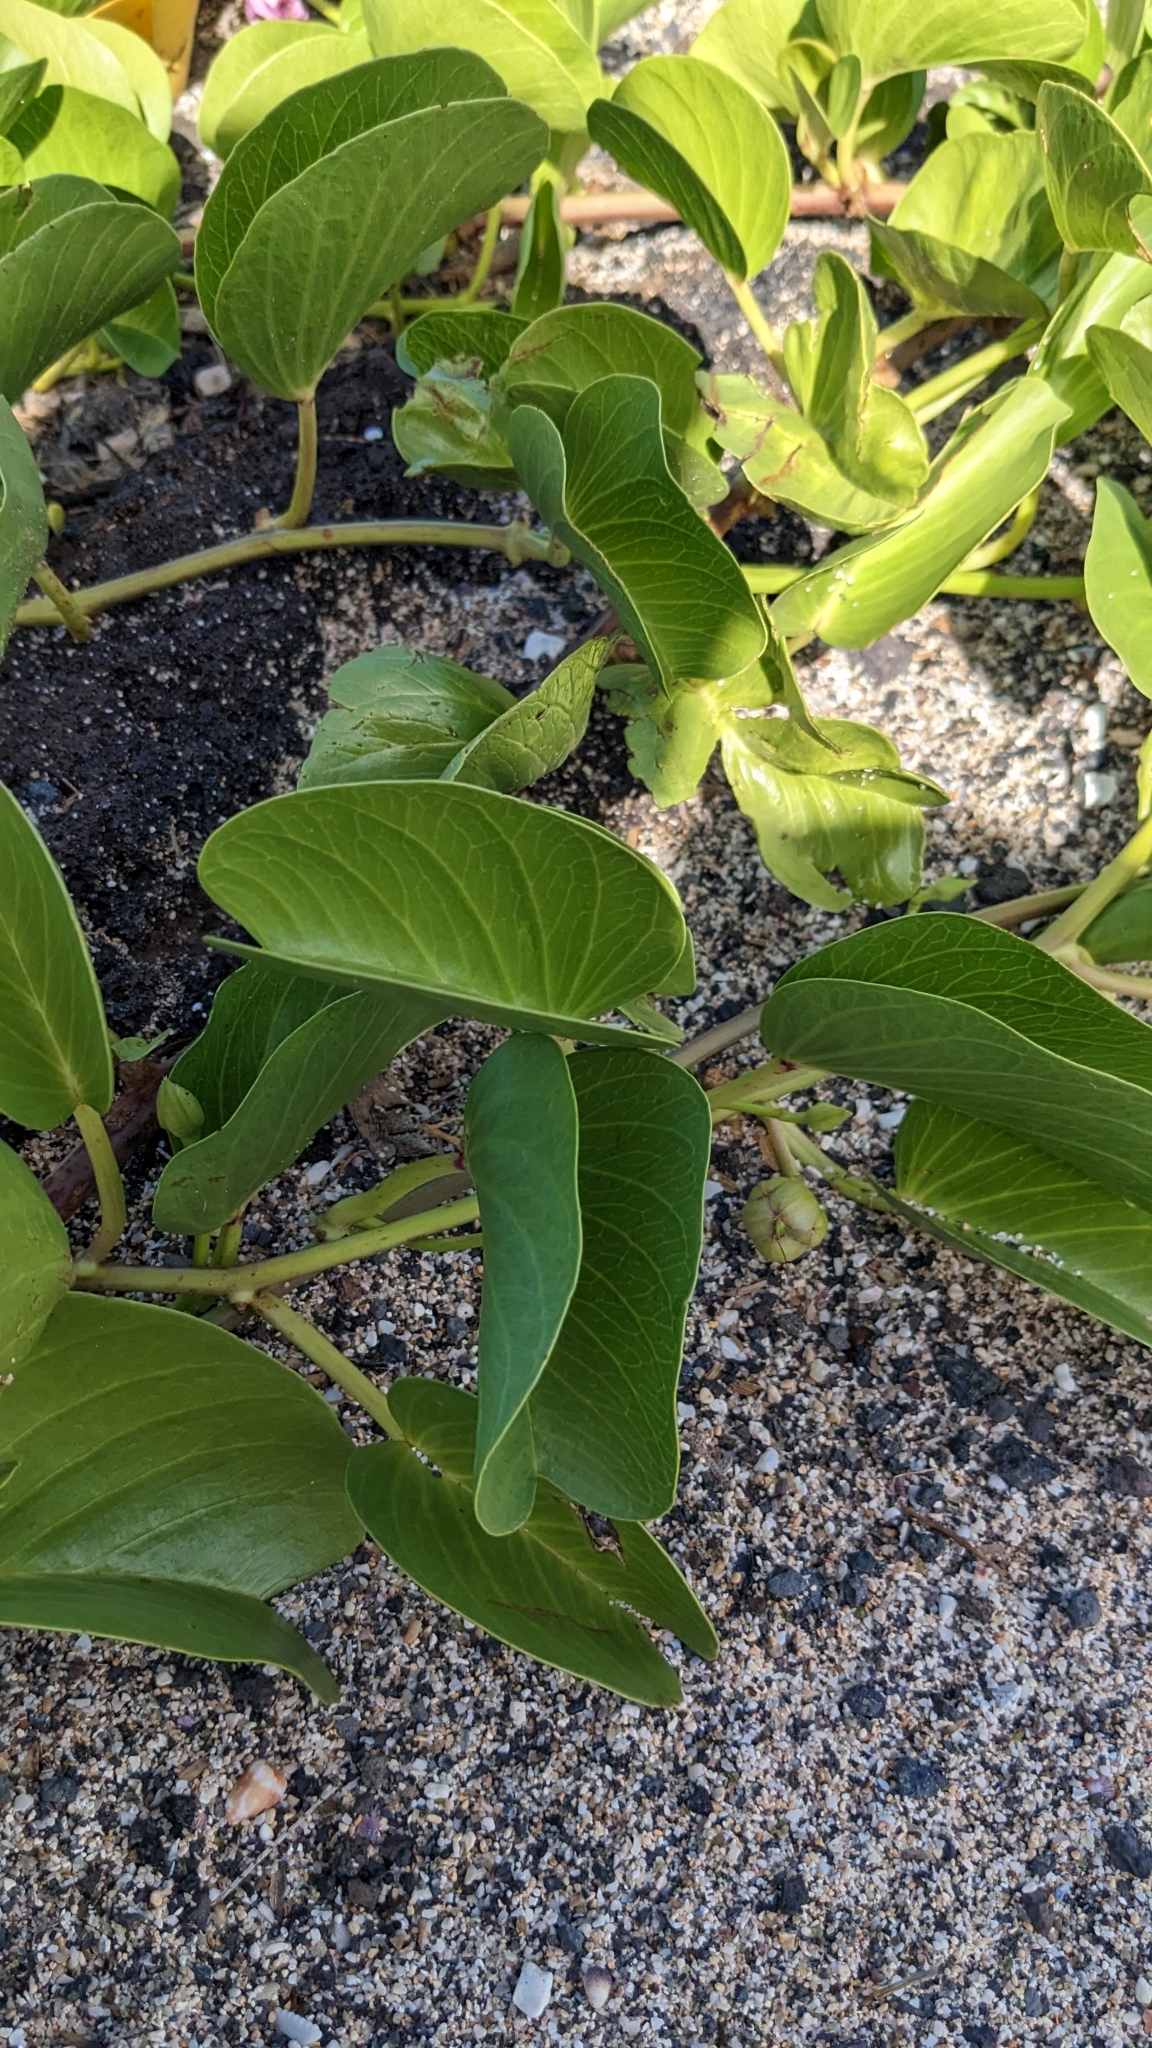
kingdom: Plantae
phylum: Tracheophyta
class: Magnoliopsida
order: Solanales
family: Convolvulaceae
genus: Ipomoea
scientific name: Ipomoea pes-caprae
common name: Beach morning glory
